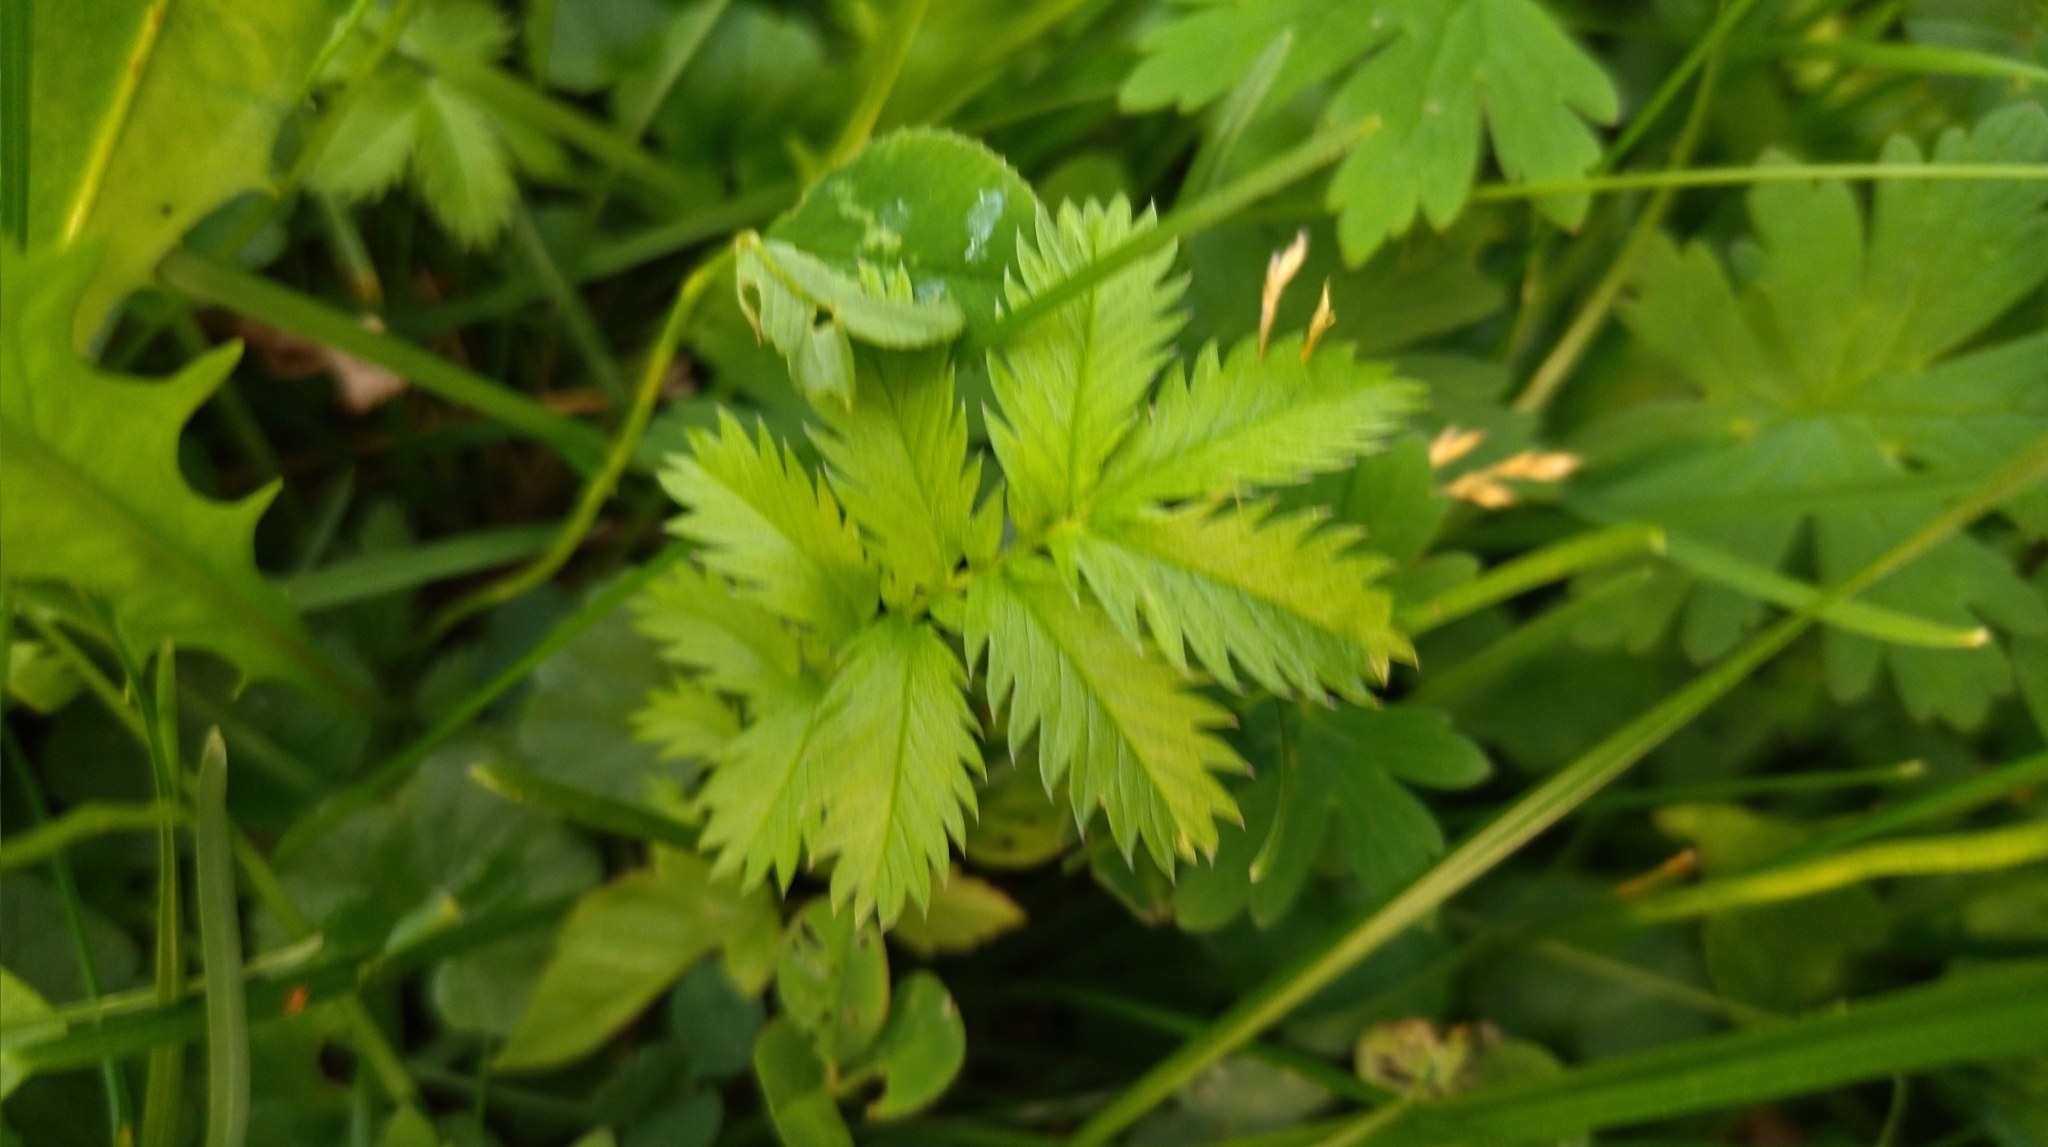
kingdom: Plantae
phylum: Tracheophyta
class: Magnoliopsida
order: Rosales
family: Rosaceae
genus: Argentina
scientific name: Argentina anserina
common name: Common silverweed
